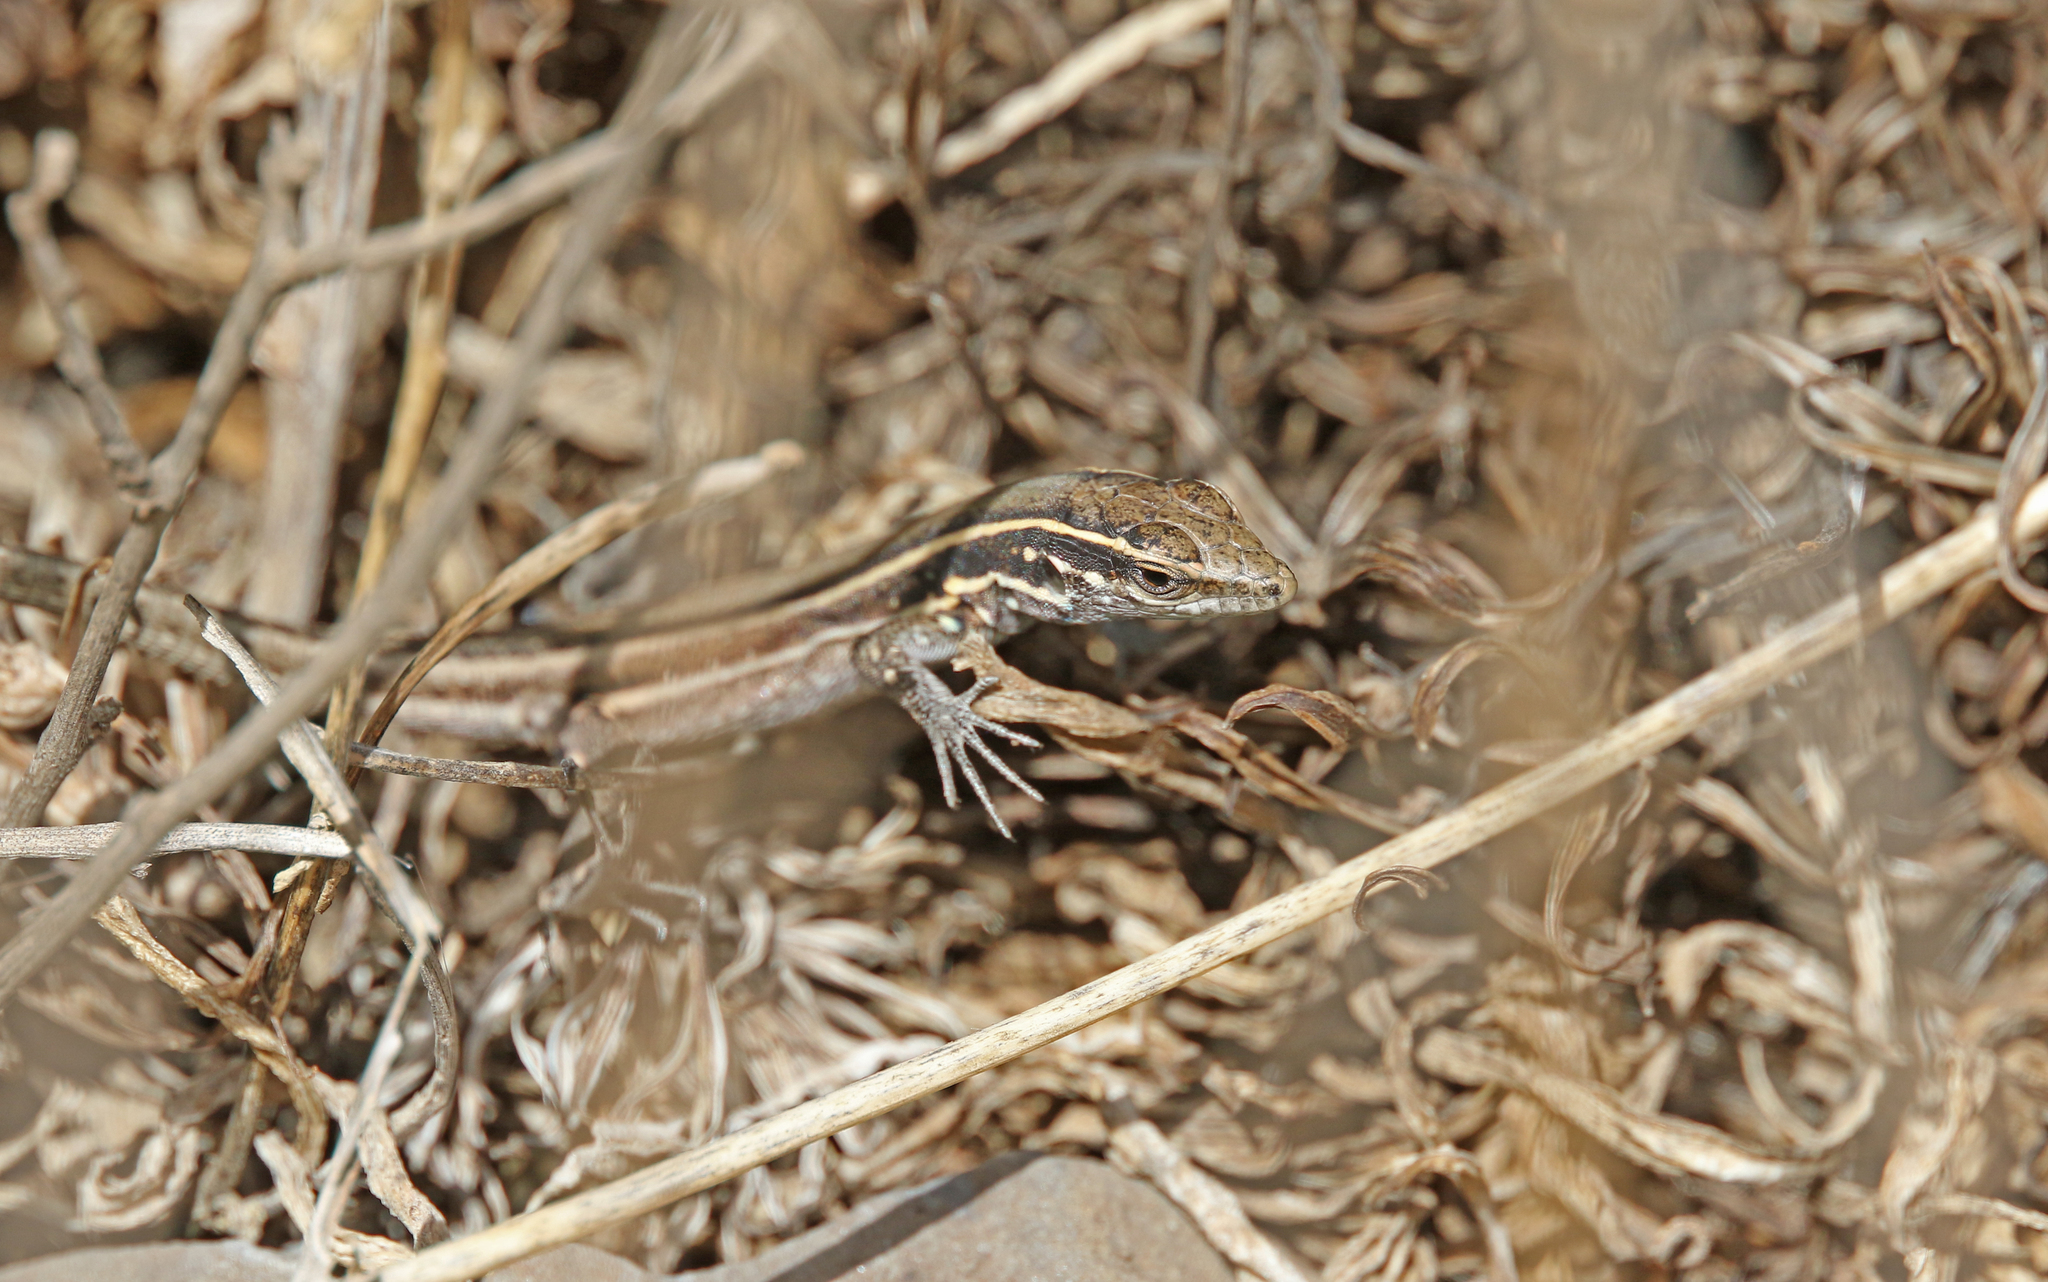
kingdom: Animalia
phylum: Chordata
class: Squamata
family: Lacertidae
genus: Gallotia
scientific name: Gallotia caesaris
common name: Boettger's lizard
